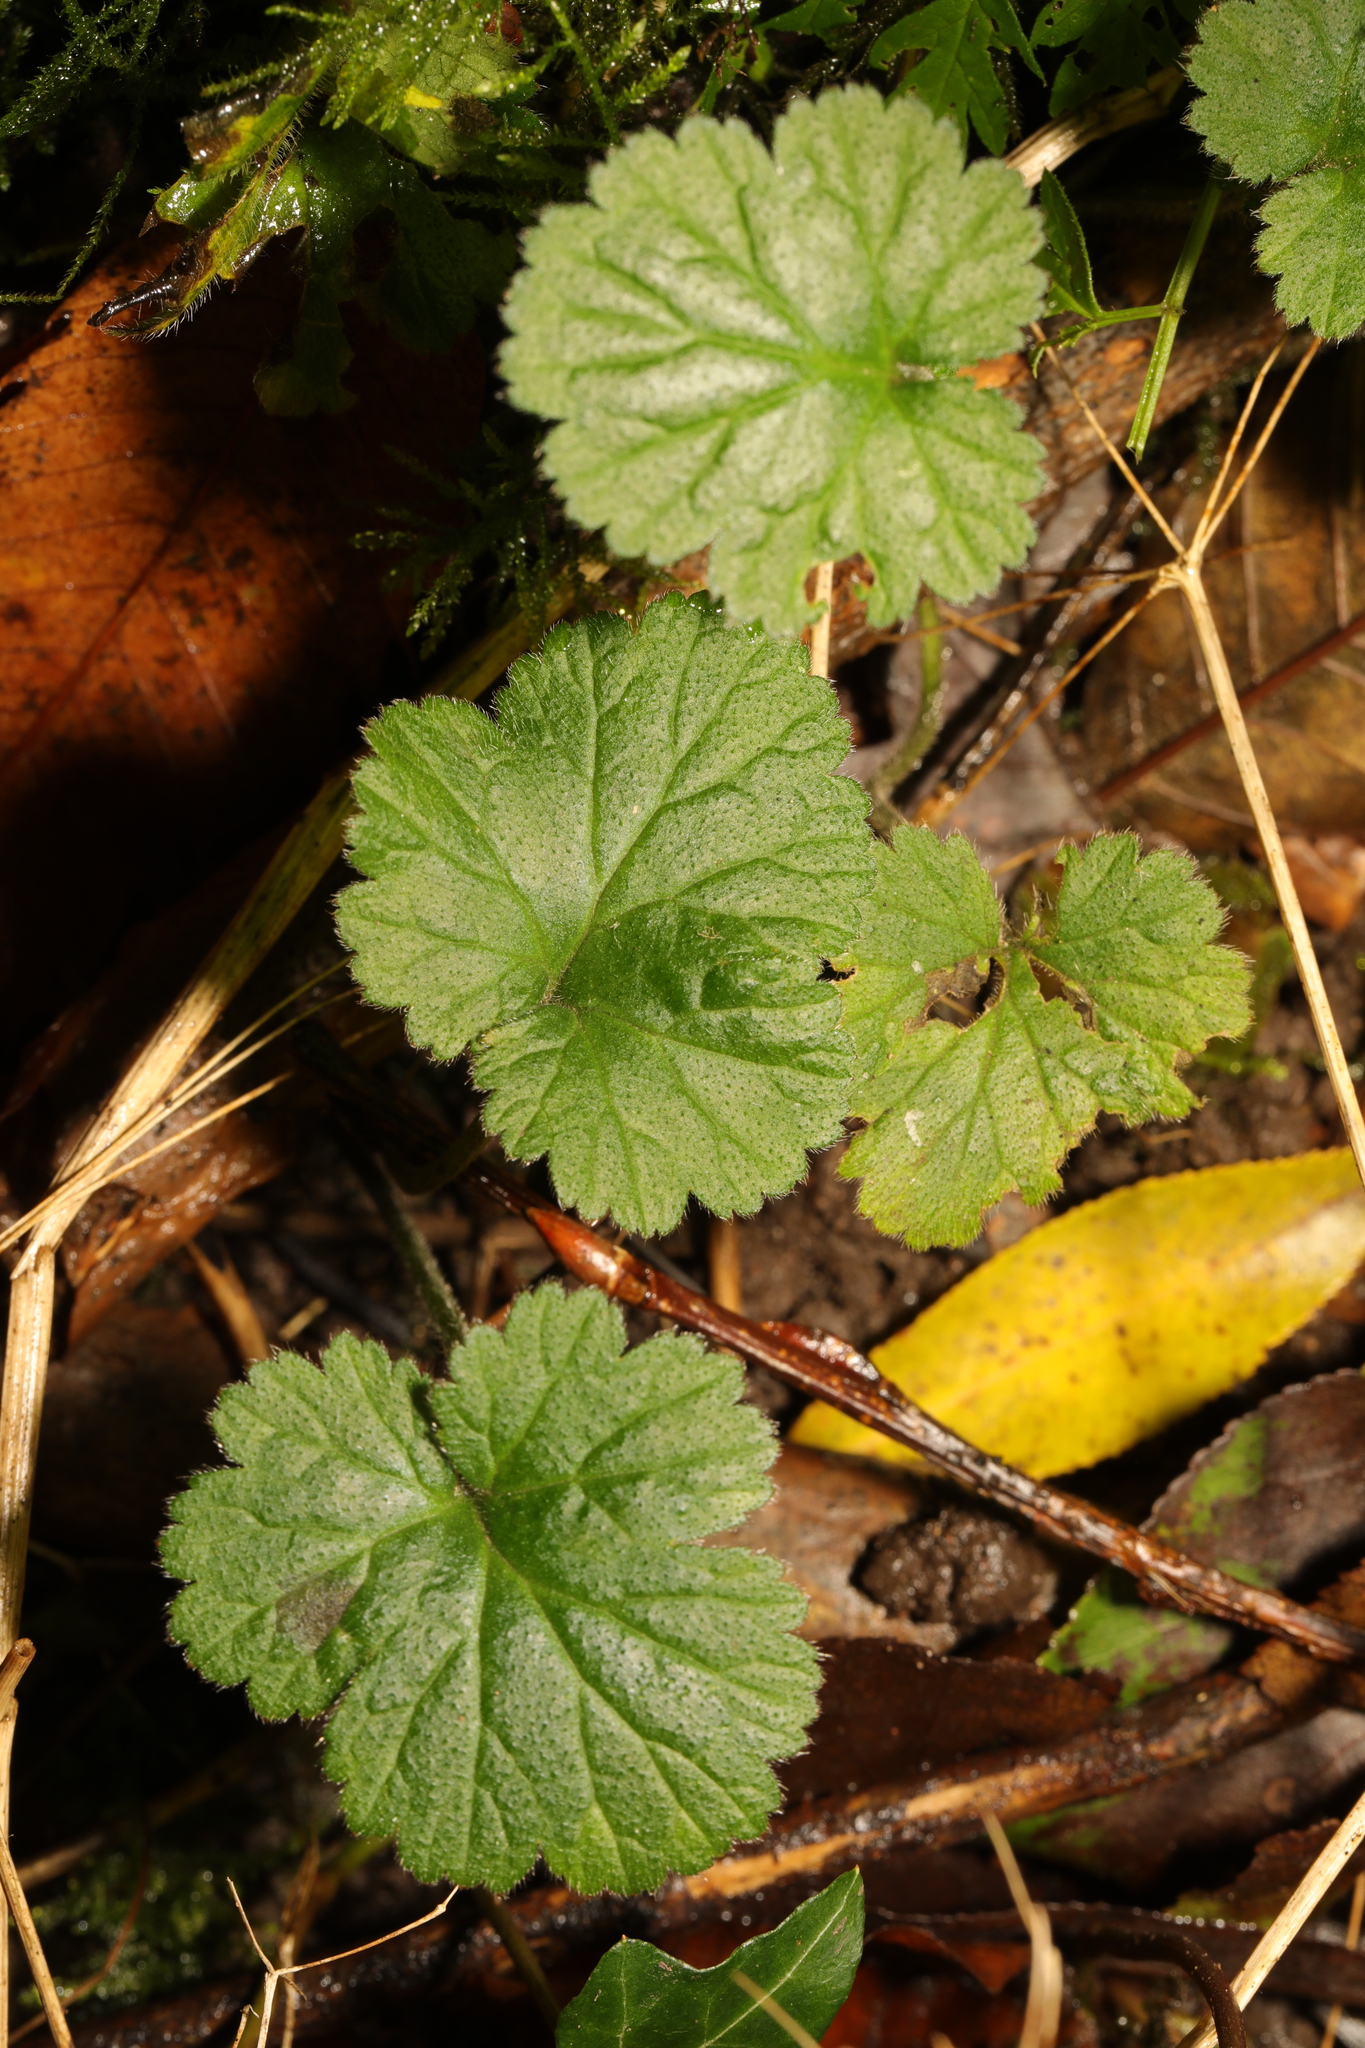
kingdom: Plantae
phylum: Tracheophyta
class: Magnoliopsida
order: Rosales
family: Rosaceae
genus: Geum
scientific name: Geum urbanum
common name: Wood avens
